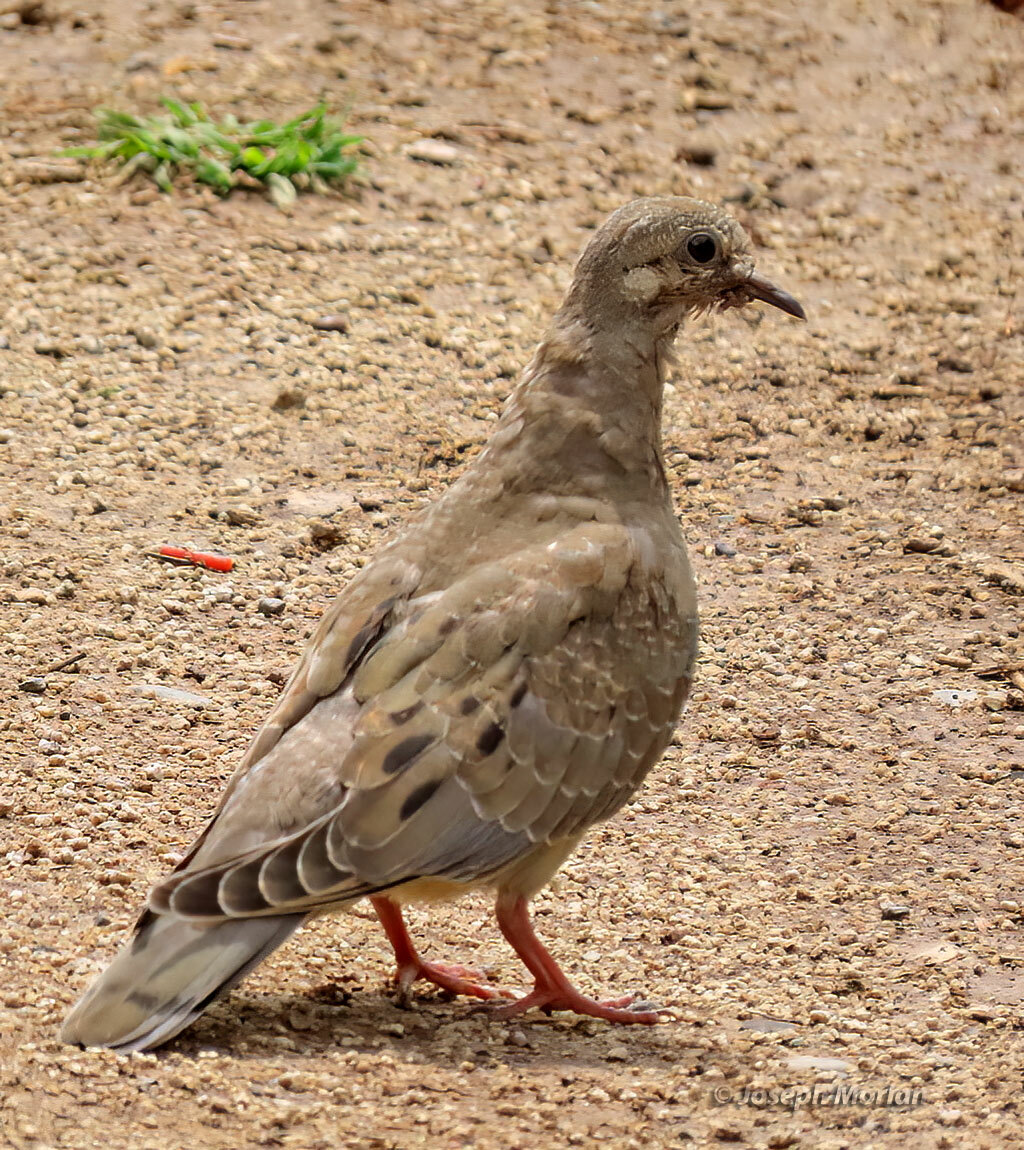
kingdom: Animalia
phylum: Chordata
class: Aves
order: Columbiformes
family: Columbidae
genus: Zenaida
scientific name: Zenaida auriculata
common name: Eared dove
